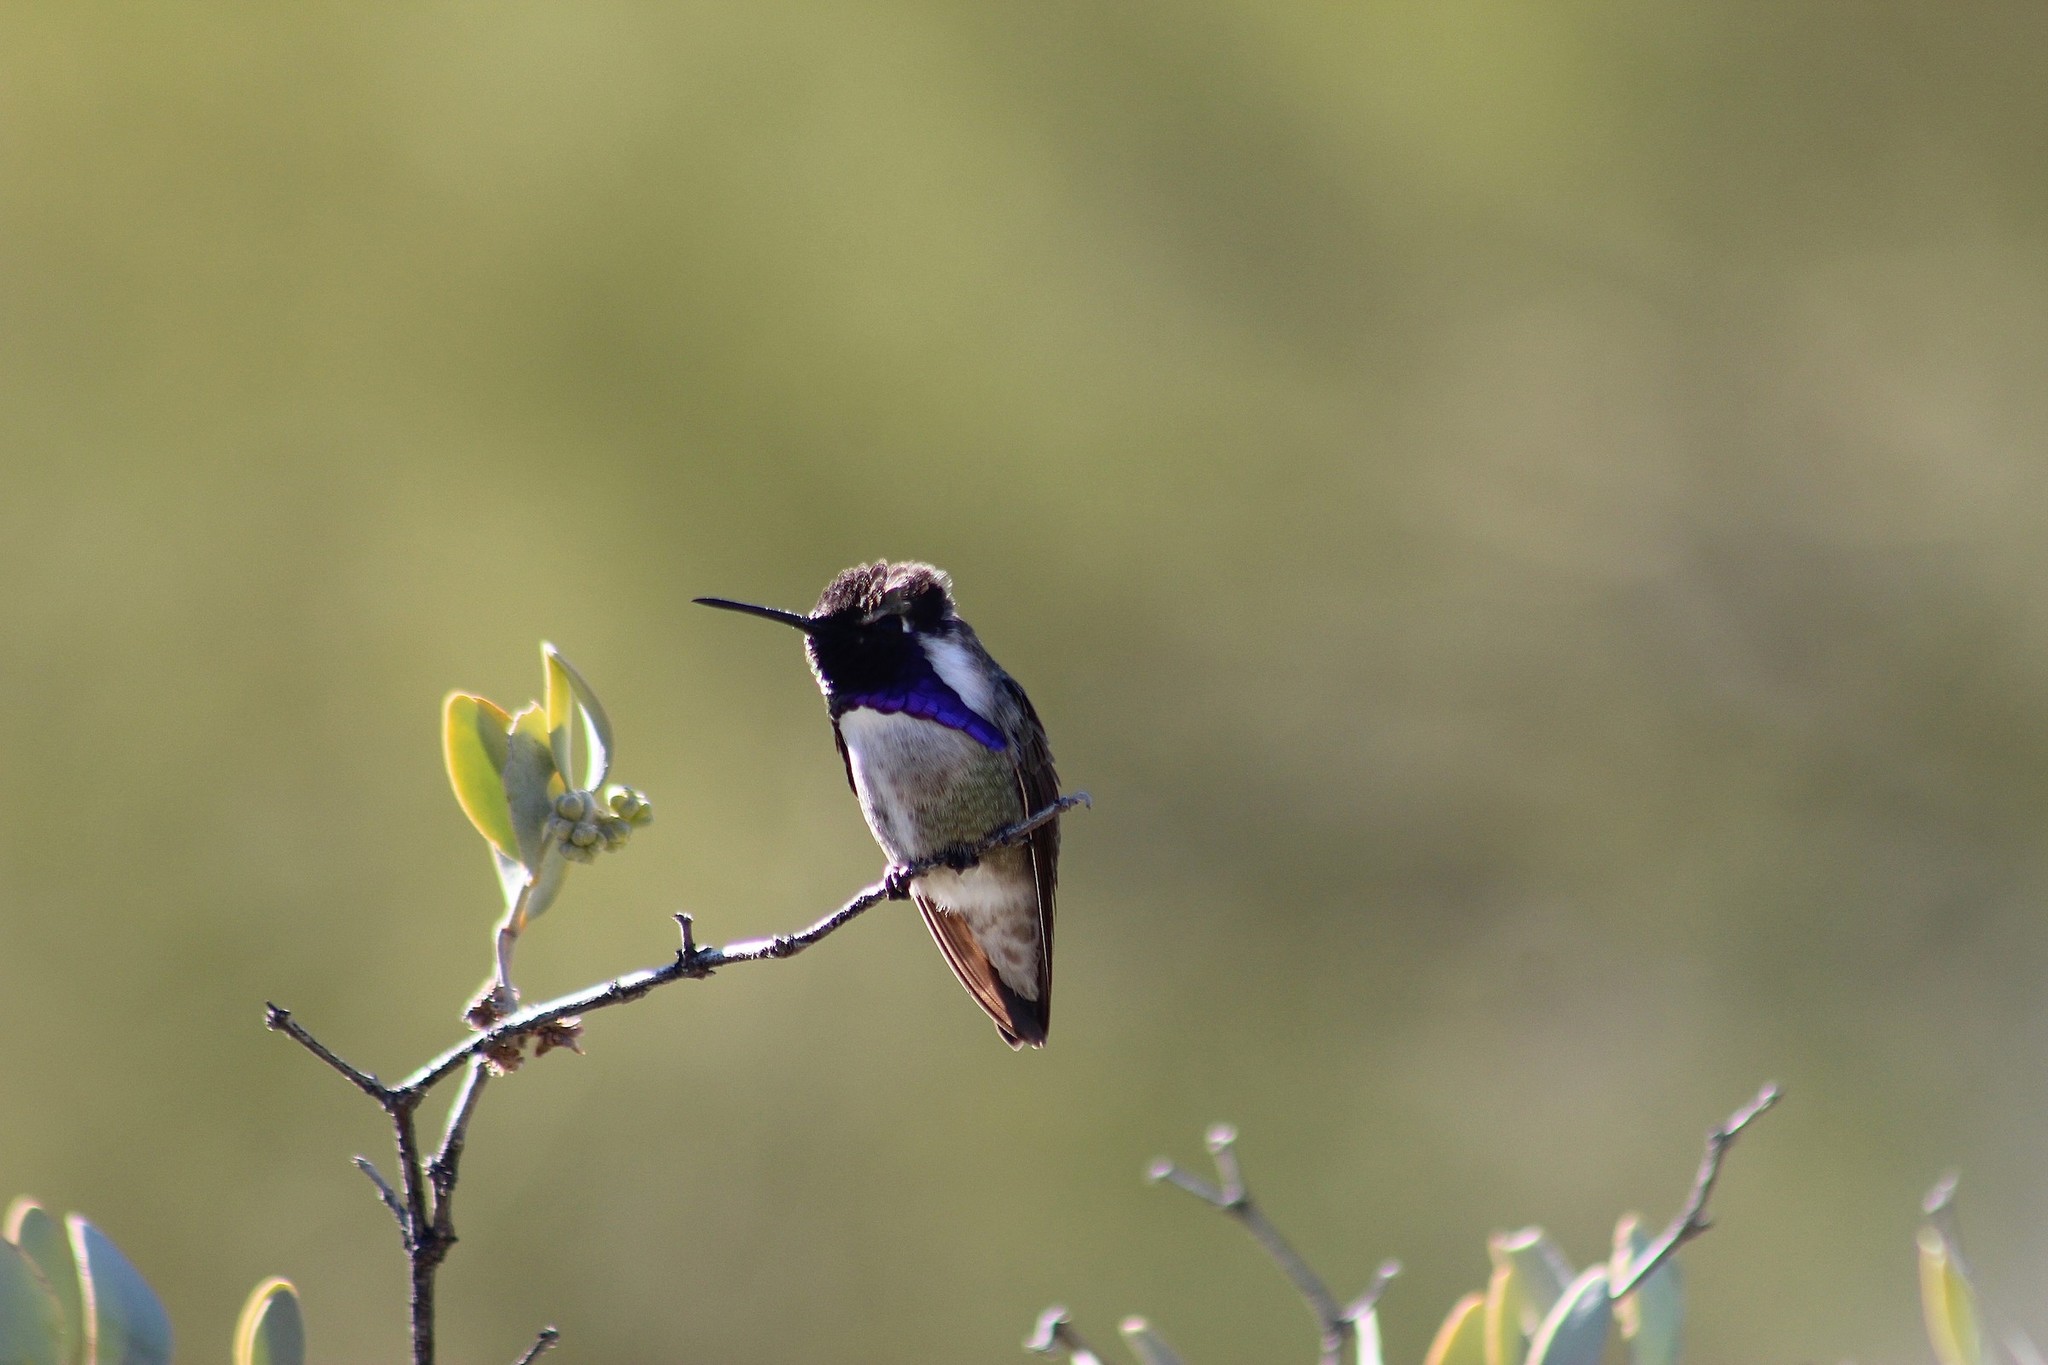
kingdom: Animalia
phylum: Chordata
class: Aves
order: Apodiformes
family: Trochilidae
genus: Calypte
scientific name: Calypte costae
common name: Costa's hummingbird
